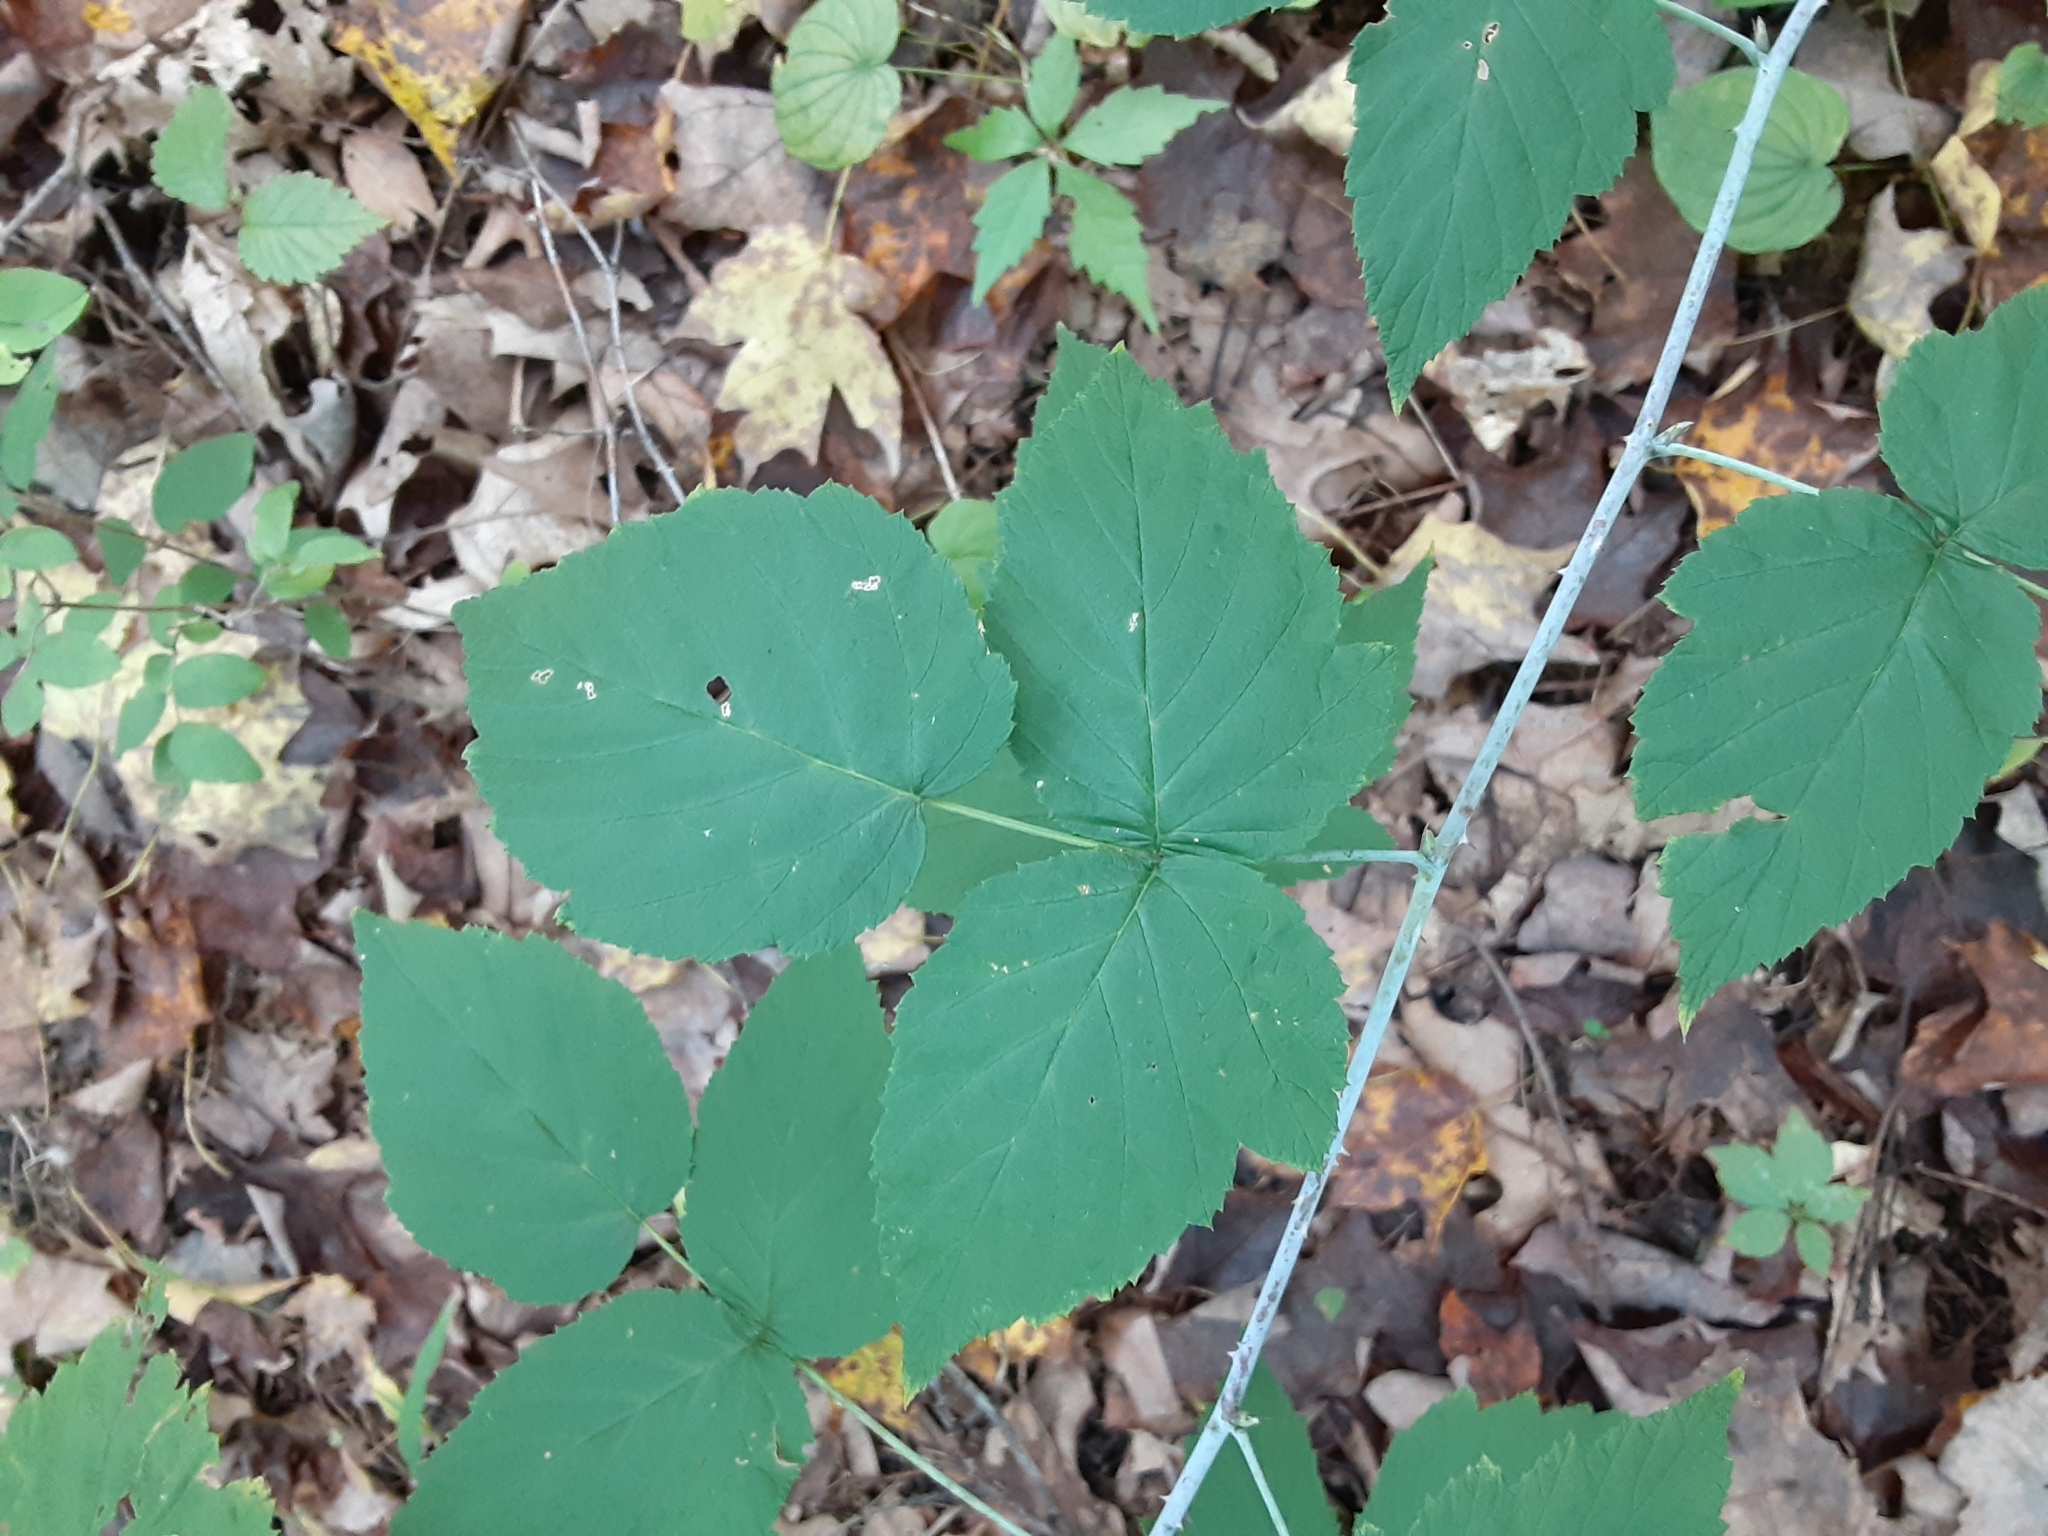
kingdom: Plantae
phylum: Tracheophyta
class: Magnoliopsida
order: Rosales
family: Rosaceae
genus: Rubus
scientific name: Rubus occidentalis
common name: Black raspberry
